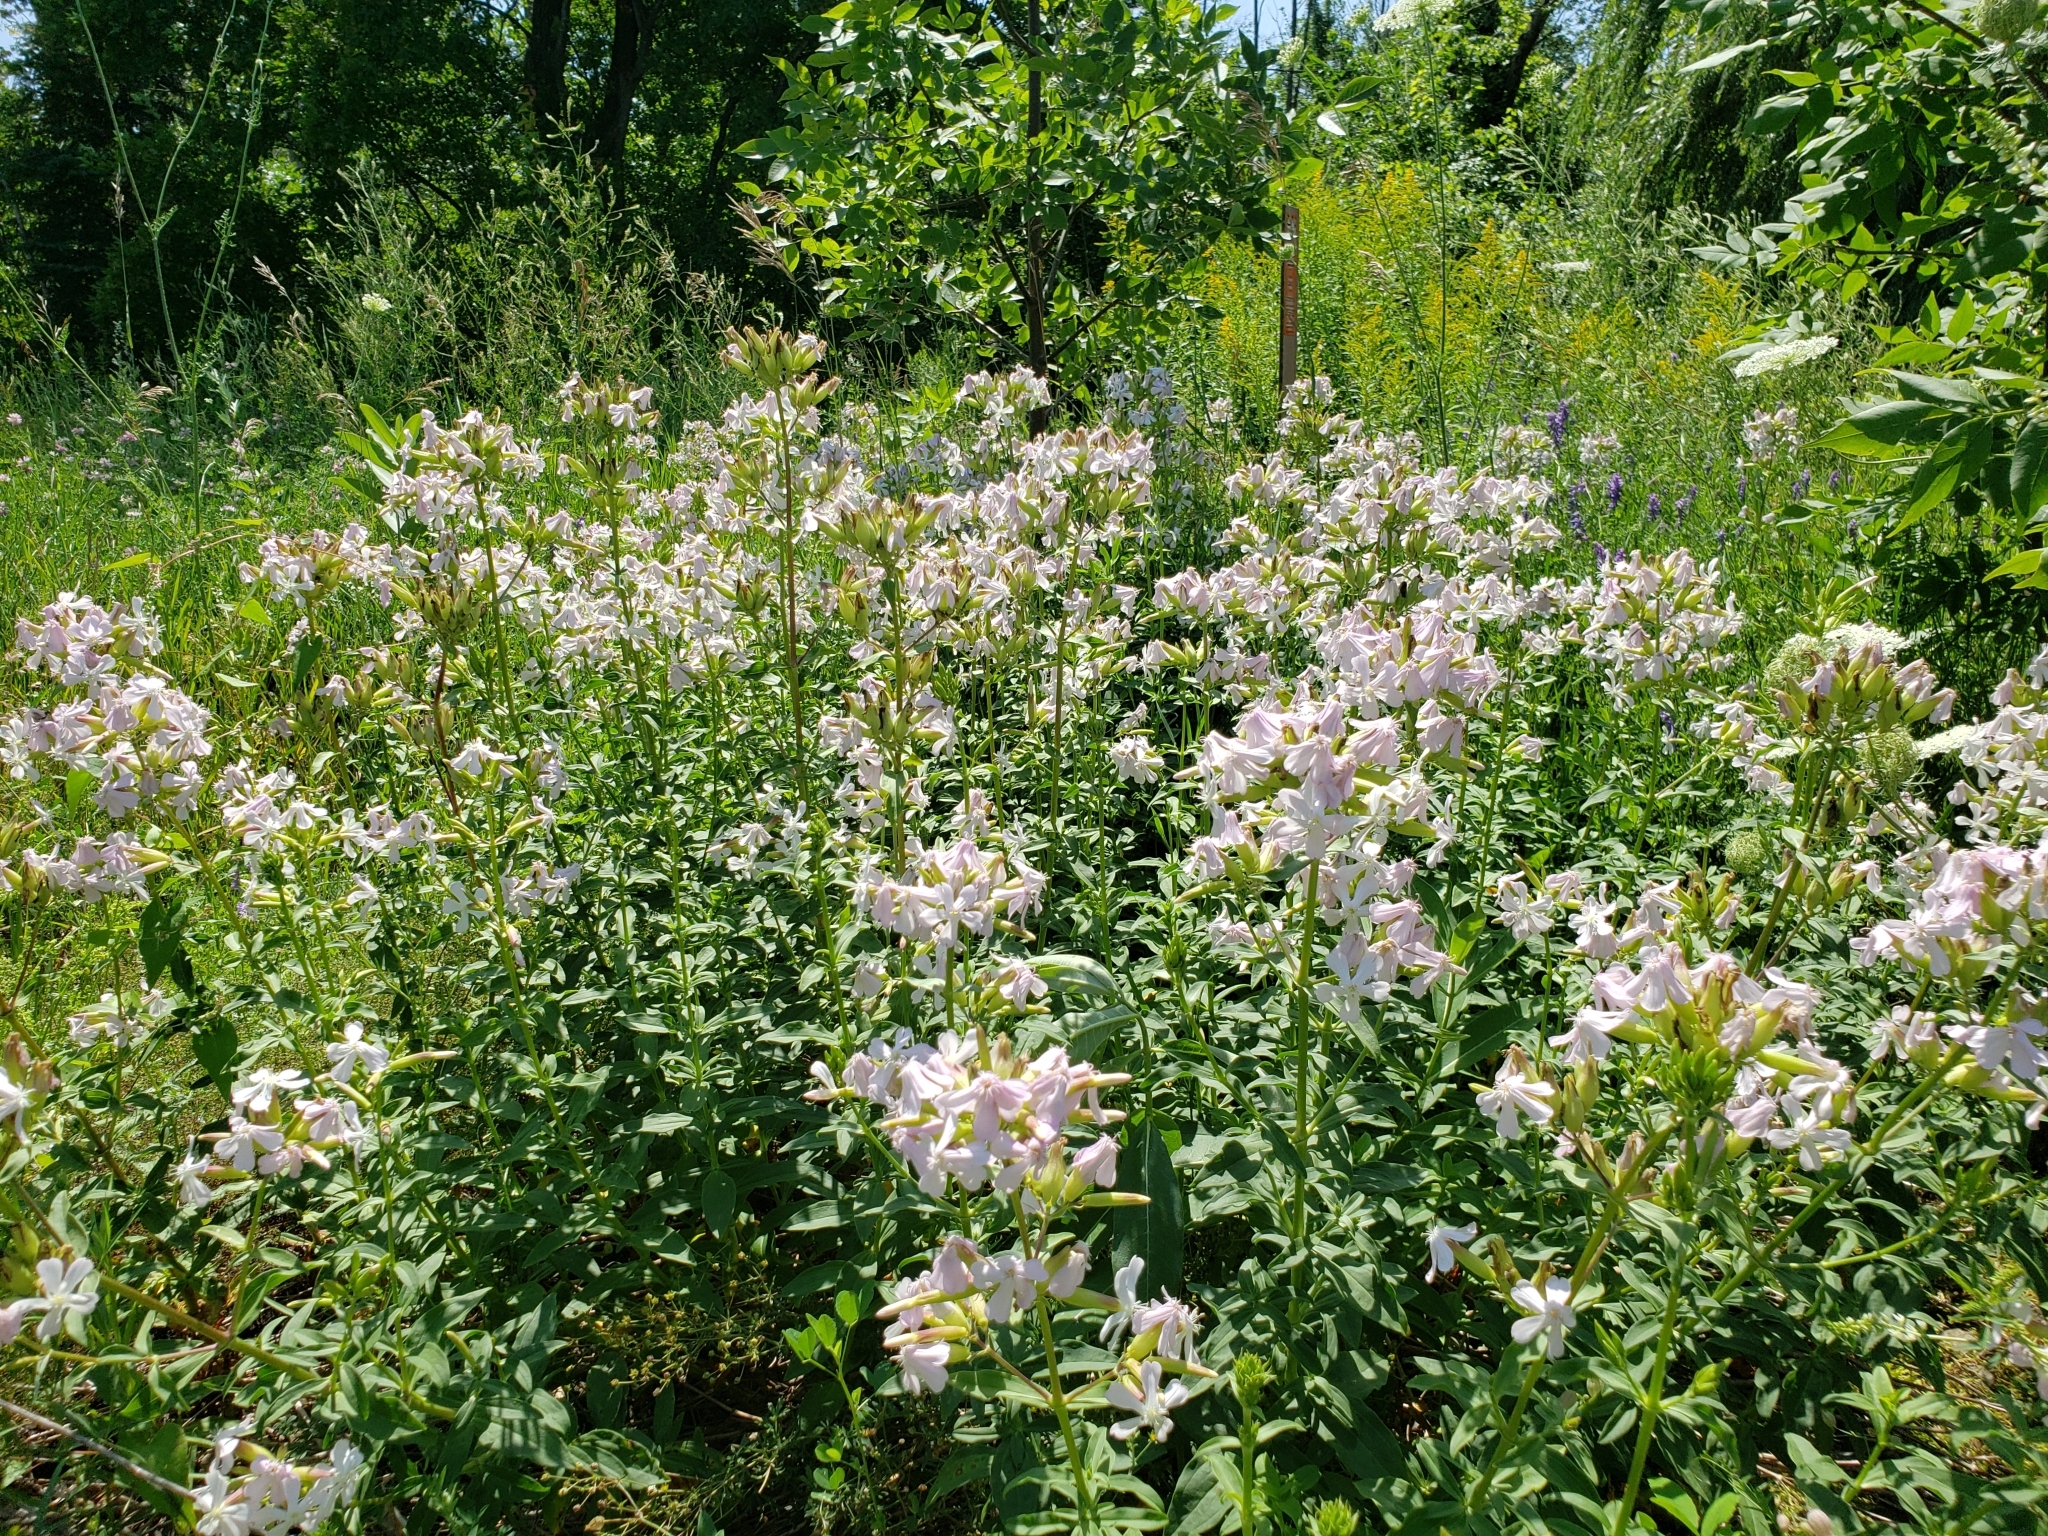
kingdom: Plantae
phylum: Tracheophyta
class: Magnoliopsida
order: Caryophyllales
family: Caryophyllaceae
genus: Saponaria
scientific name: Saponaria officinalis
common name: Soapwort
